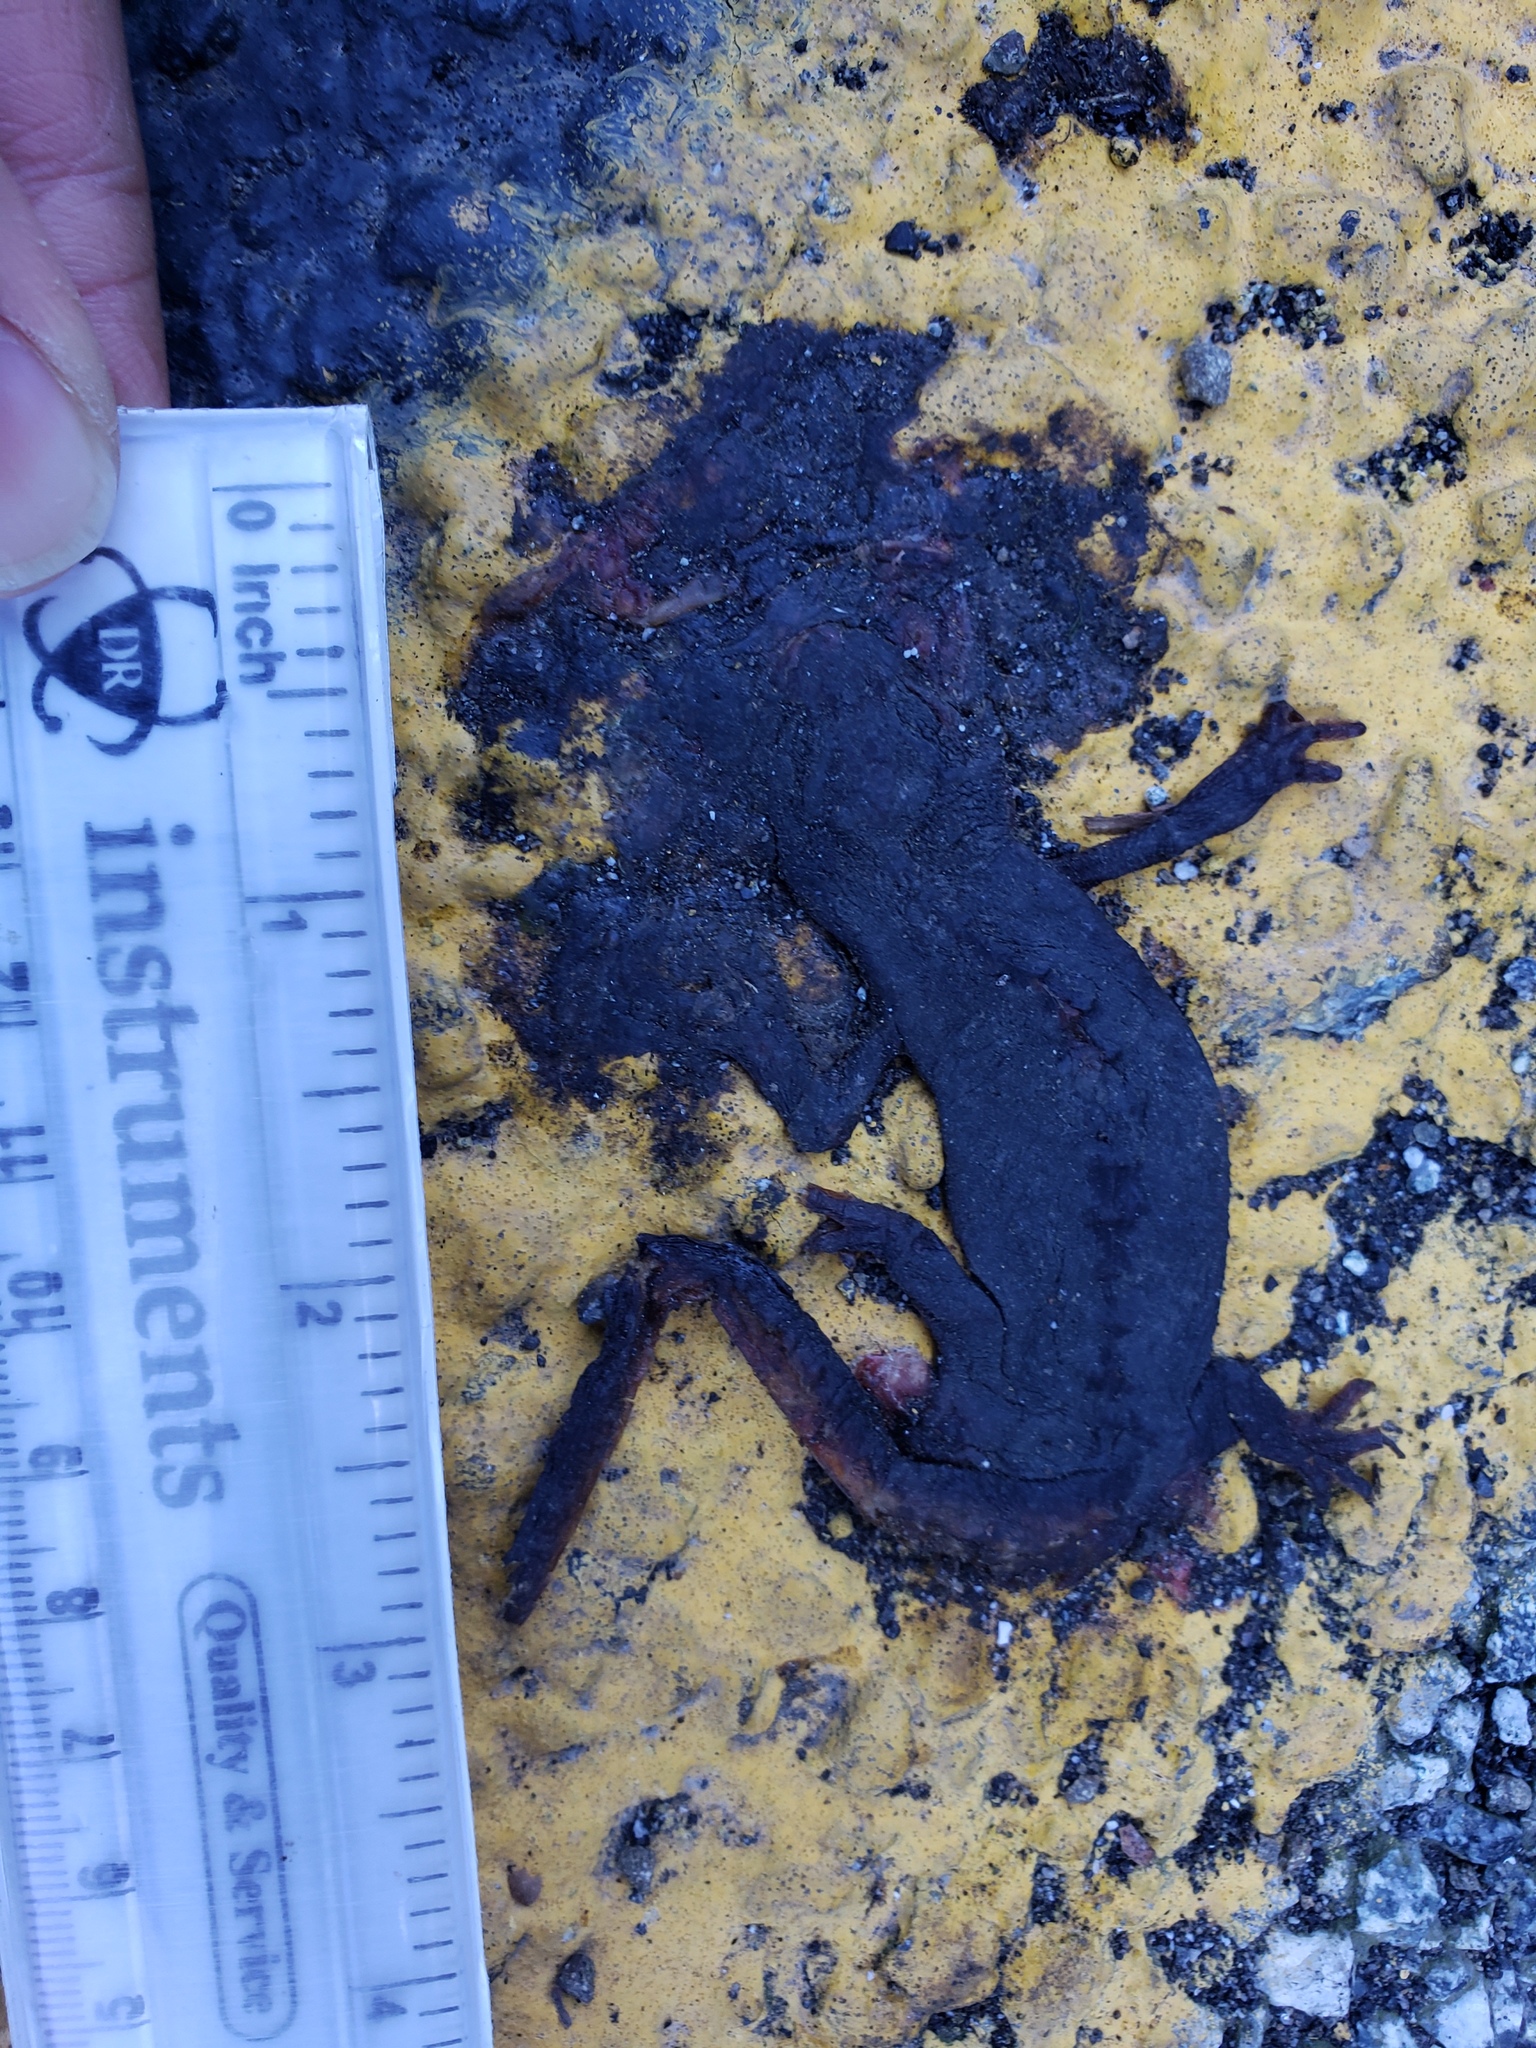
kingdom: Animalia
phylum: Chordata
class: Amphibia
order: Caudata
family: Salamandridae
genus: Taricha
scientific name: Taricha
